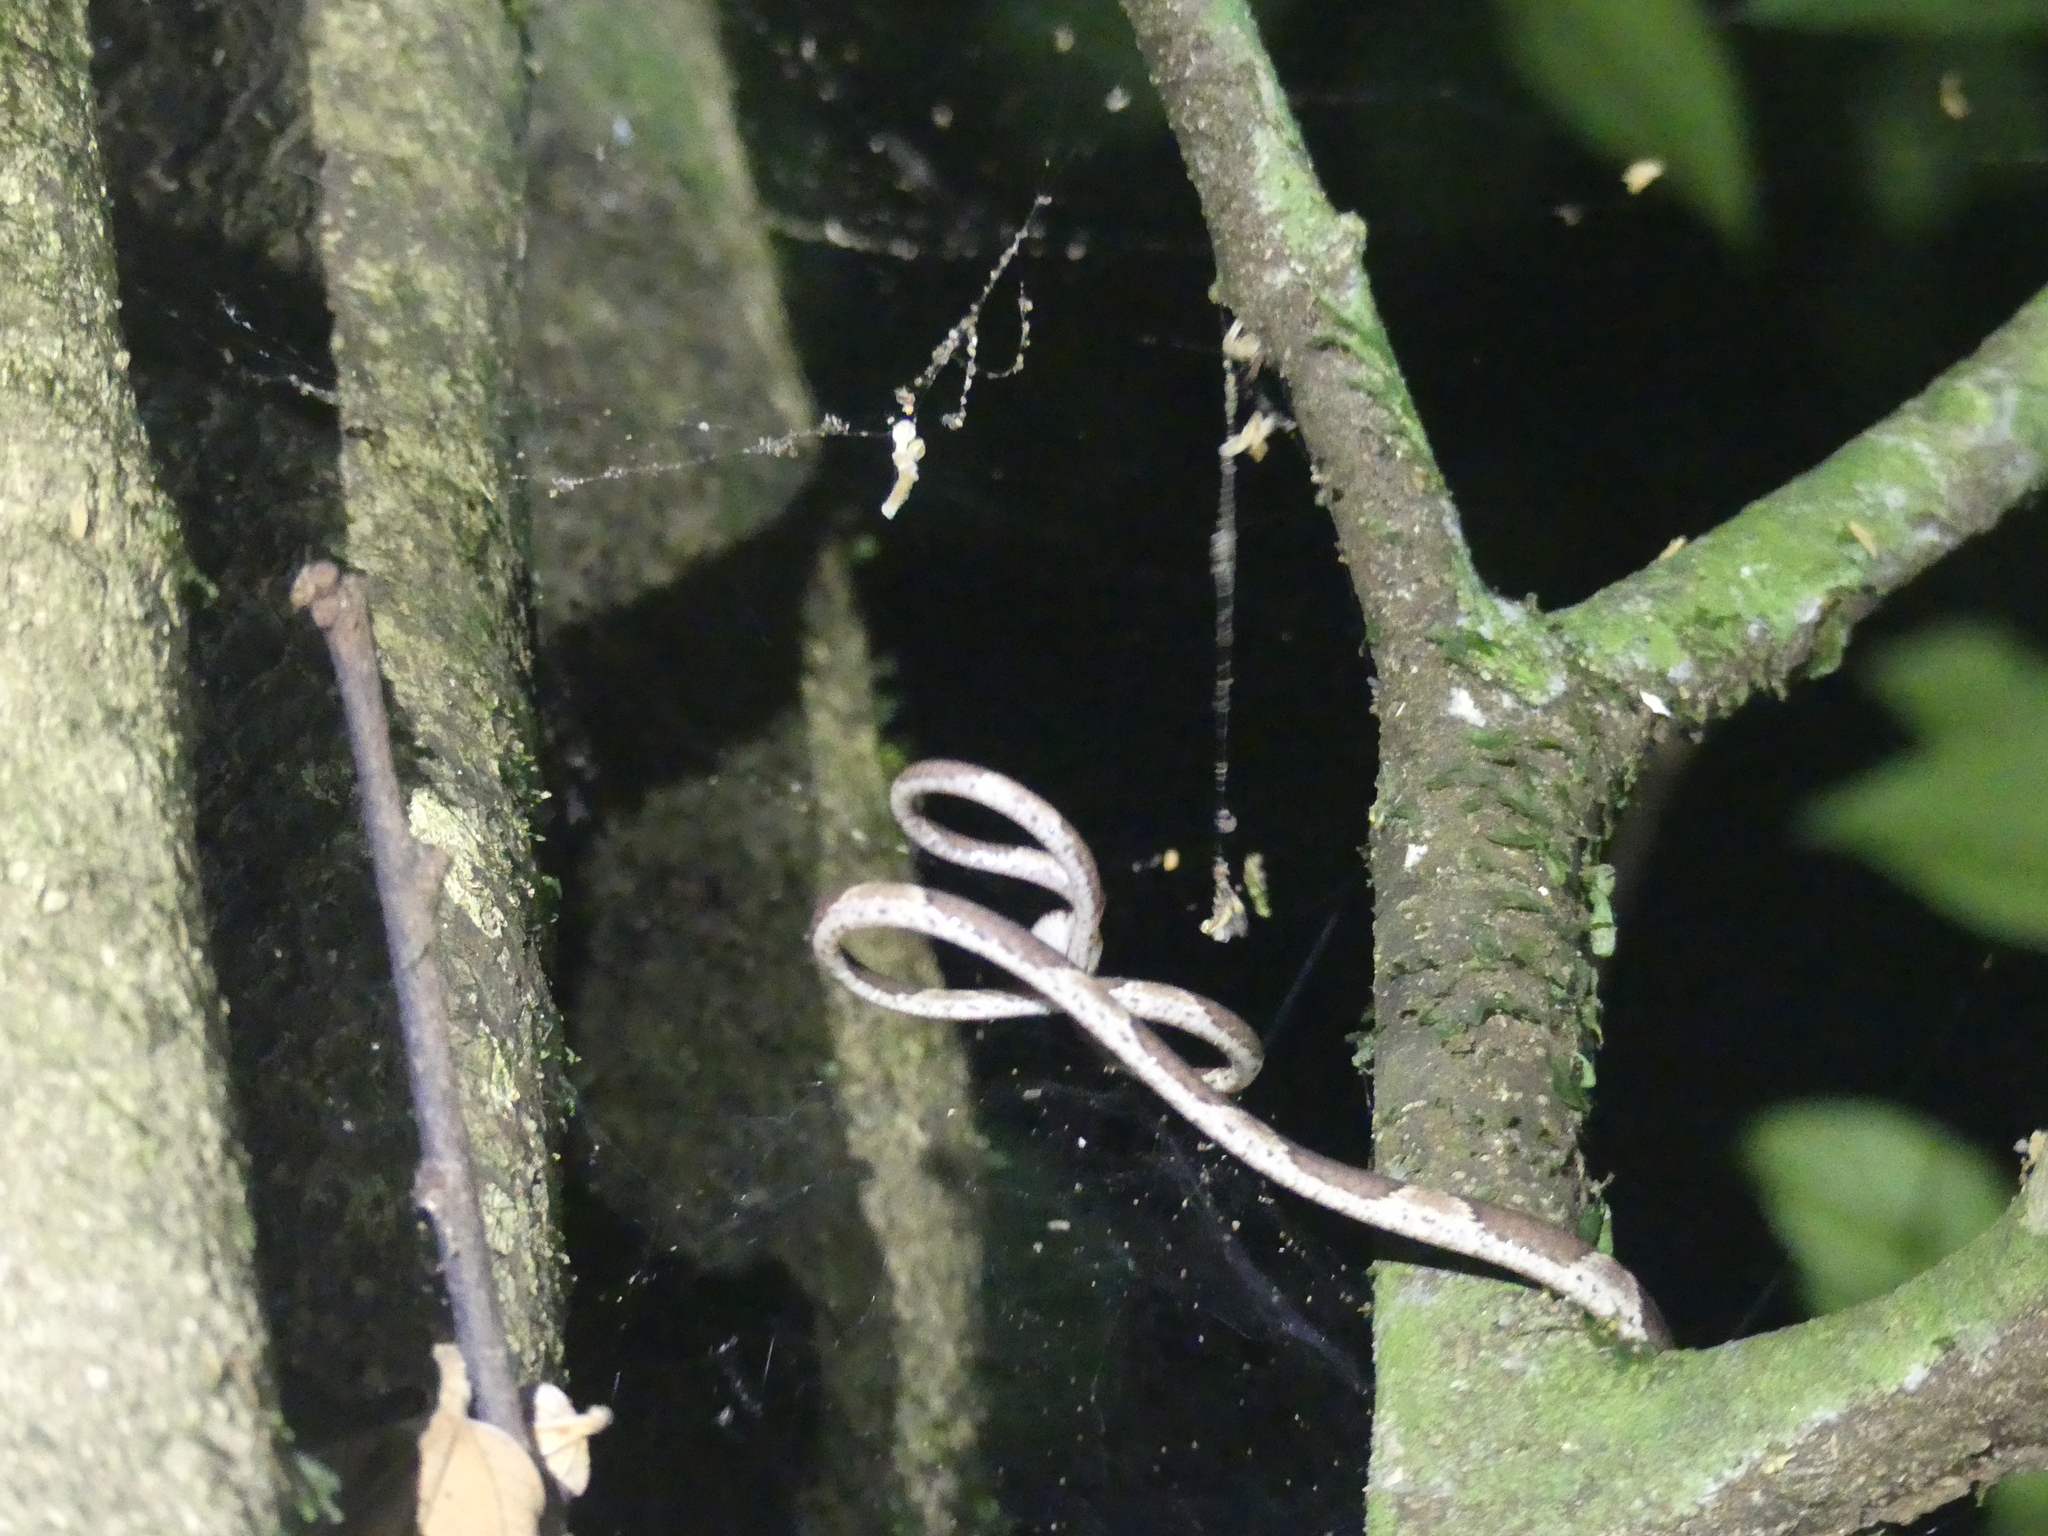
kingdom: Animalia
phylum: Chordata
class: Squamata
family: Colubridae
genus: Imantodes
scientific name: Imantodes cenchoa
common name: Blunthead tree snake
